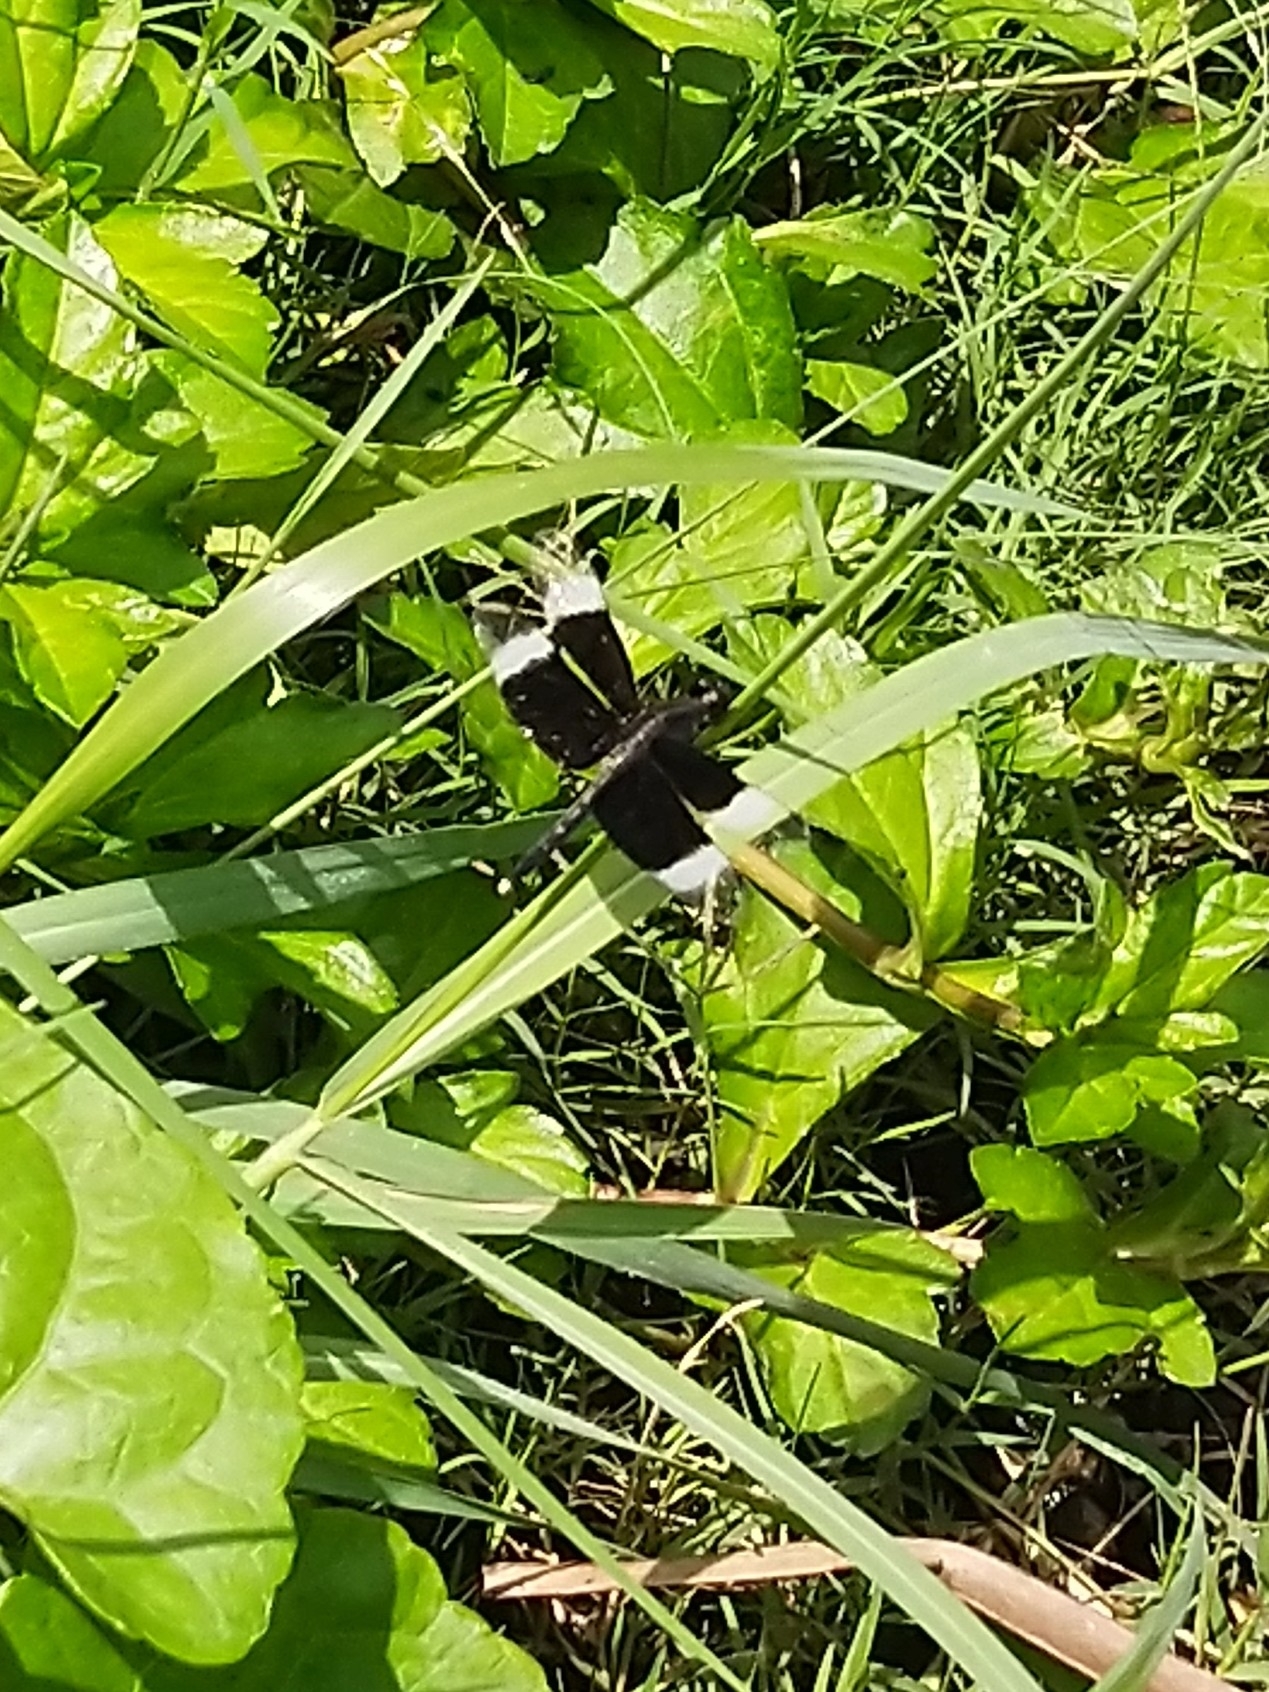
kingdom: Animalia
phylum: Arthropoda
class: Insecta
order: Odonata
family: Libellulidae
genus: Neurothemis
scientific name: Neurothemis tullia
